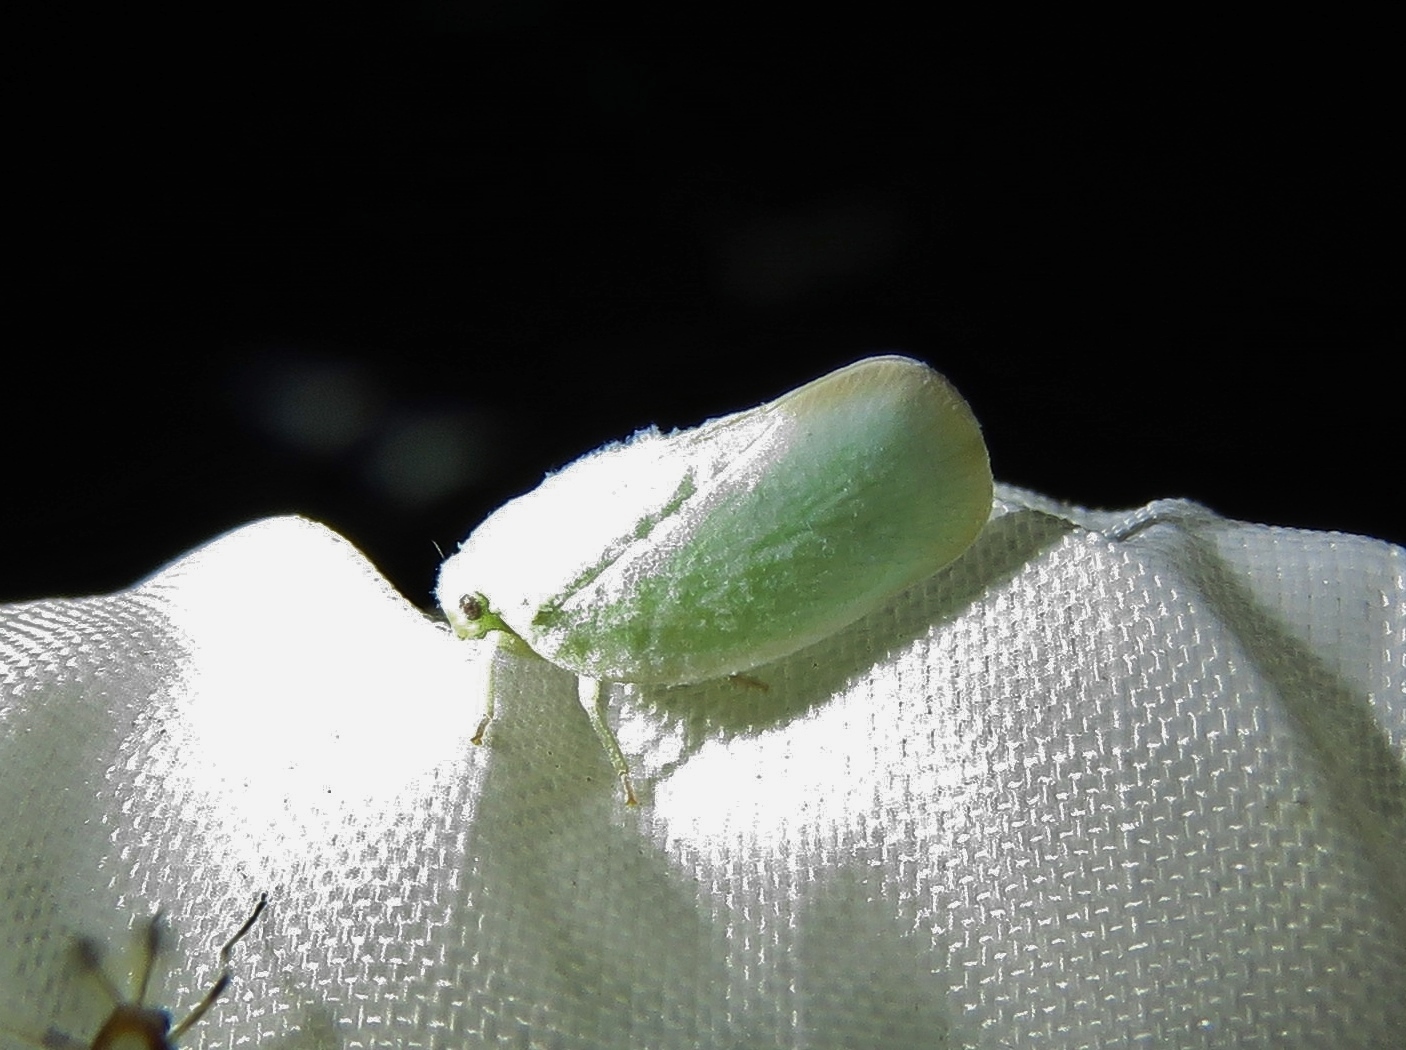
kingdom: Animalia
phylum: Arthropoda
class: Insecta
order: Hemiptera
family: Flatidae
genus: Ormenoides
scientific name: Ormenoides venusta
